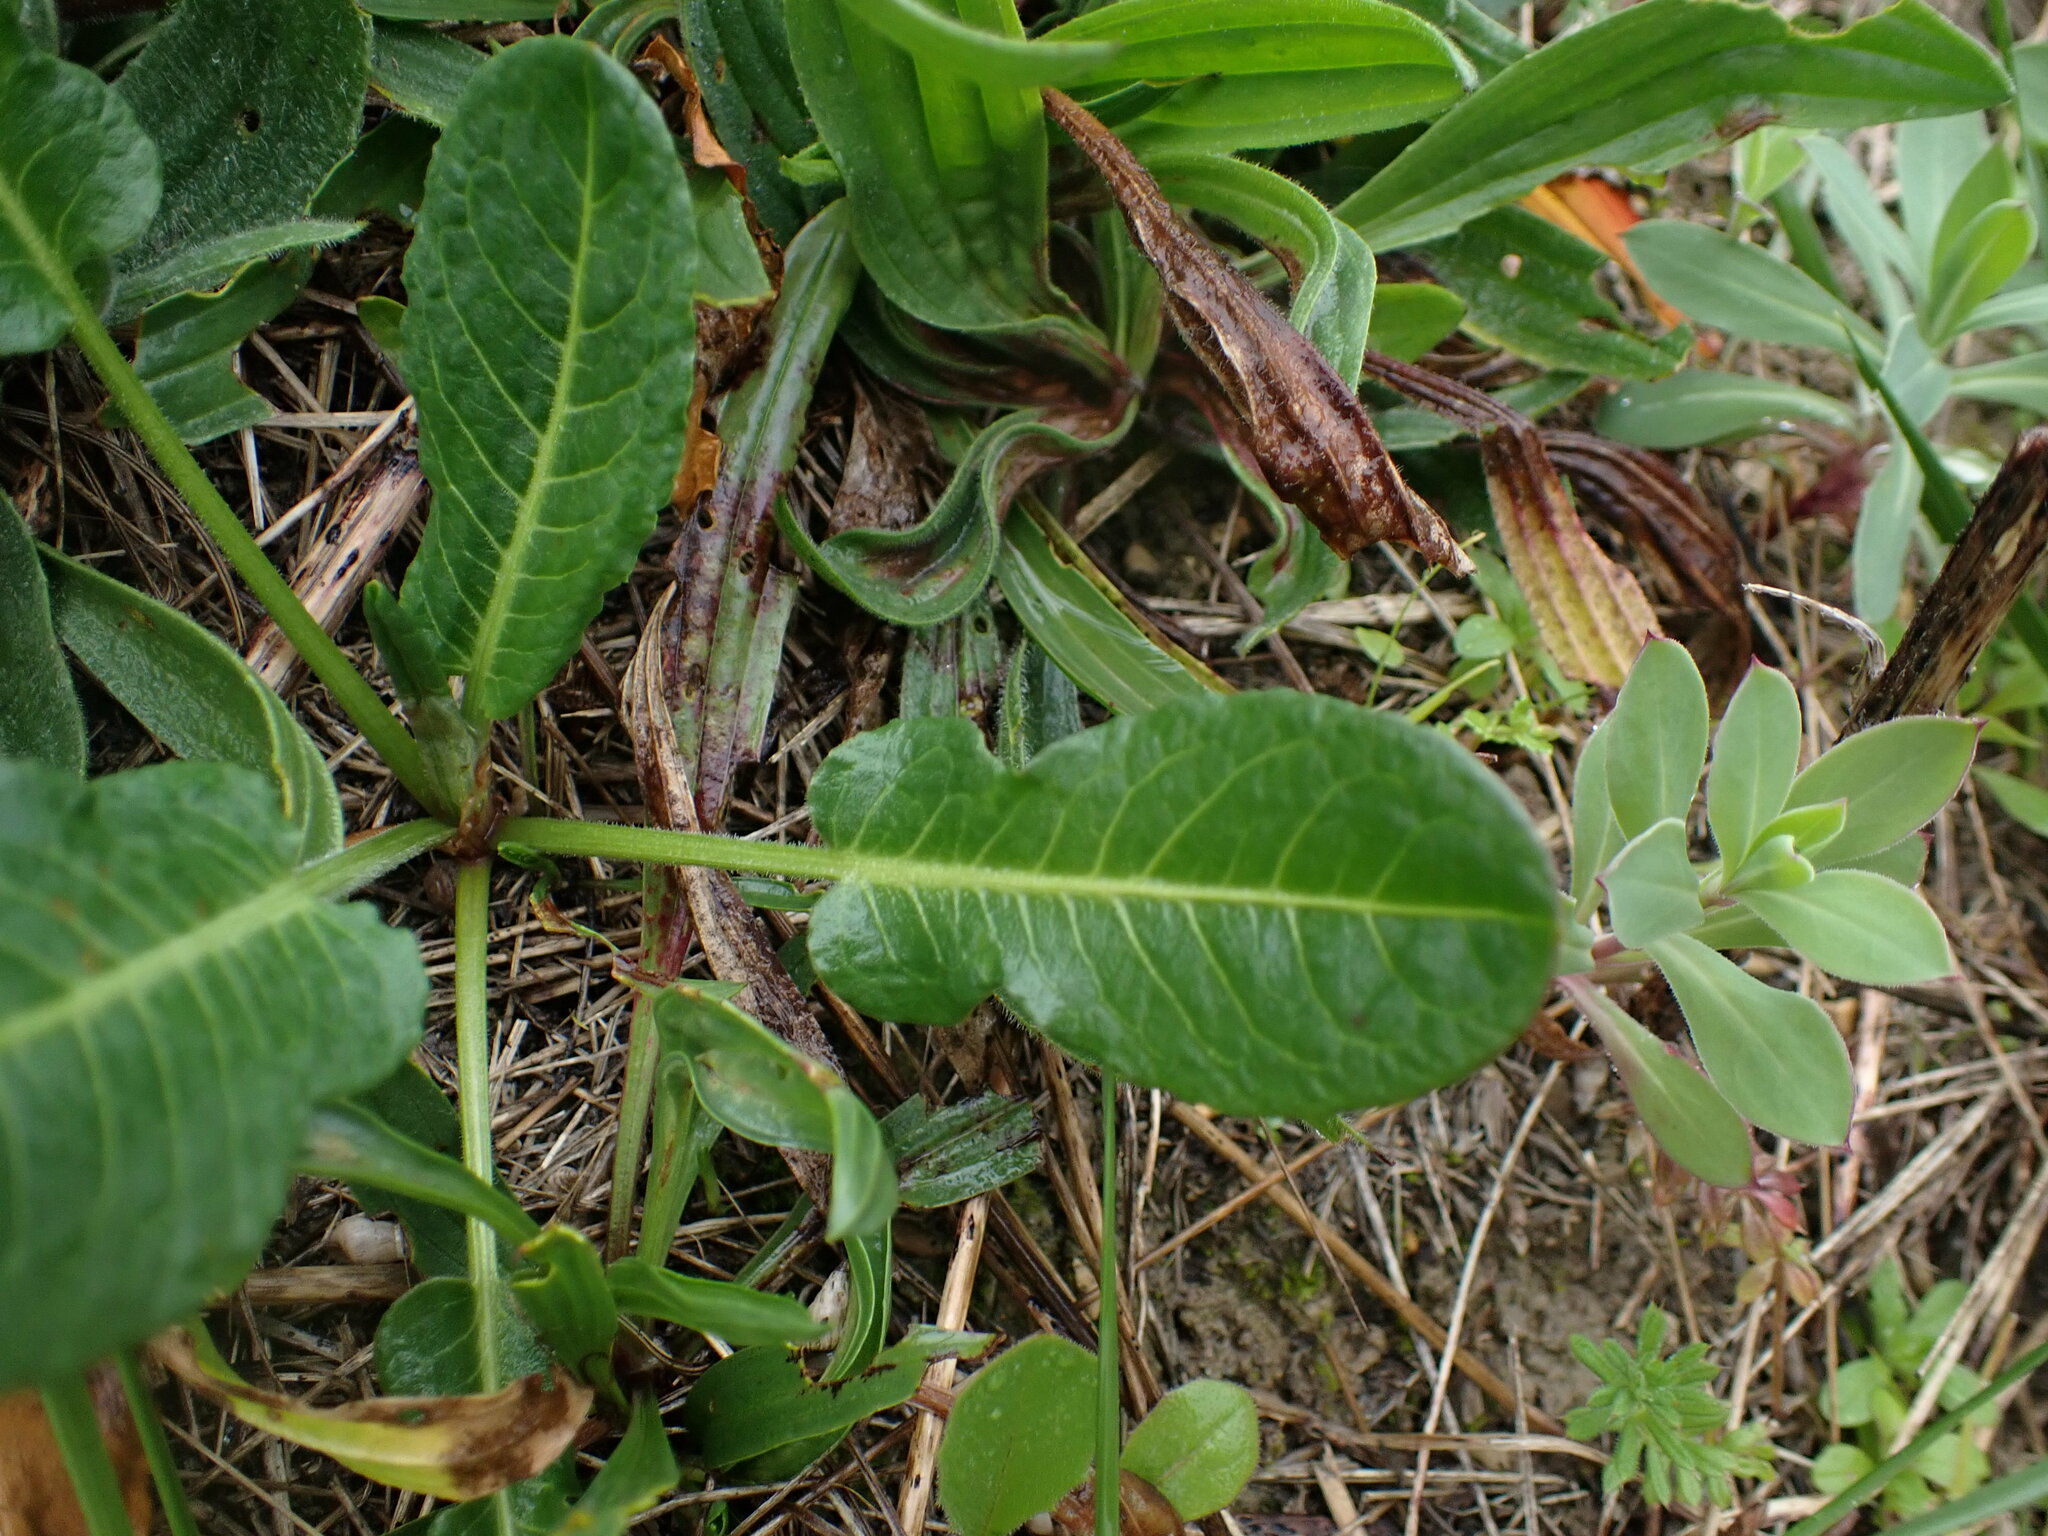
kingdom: Plantae
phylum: Tracheophyta
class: Magnoliopsida
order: Caryophyllales
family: Polygonaceae
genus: Rumex
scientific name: Rumex pulcher
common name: Fiddle dock
